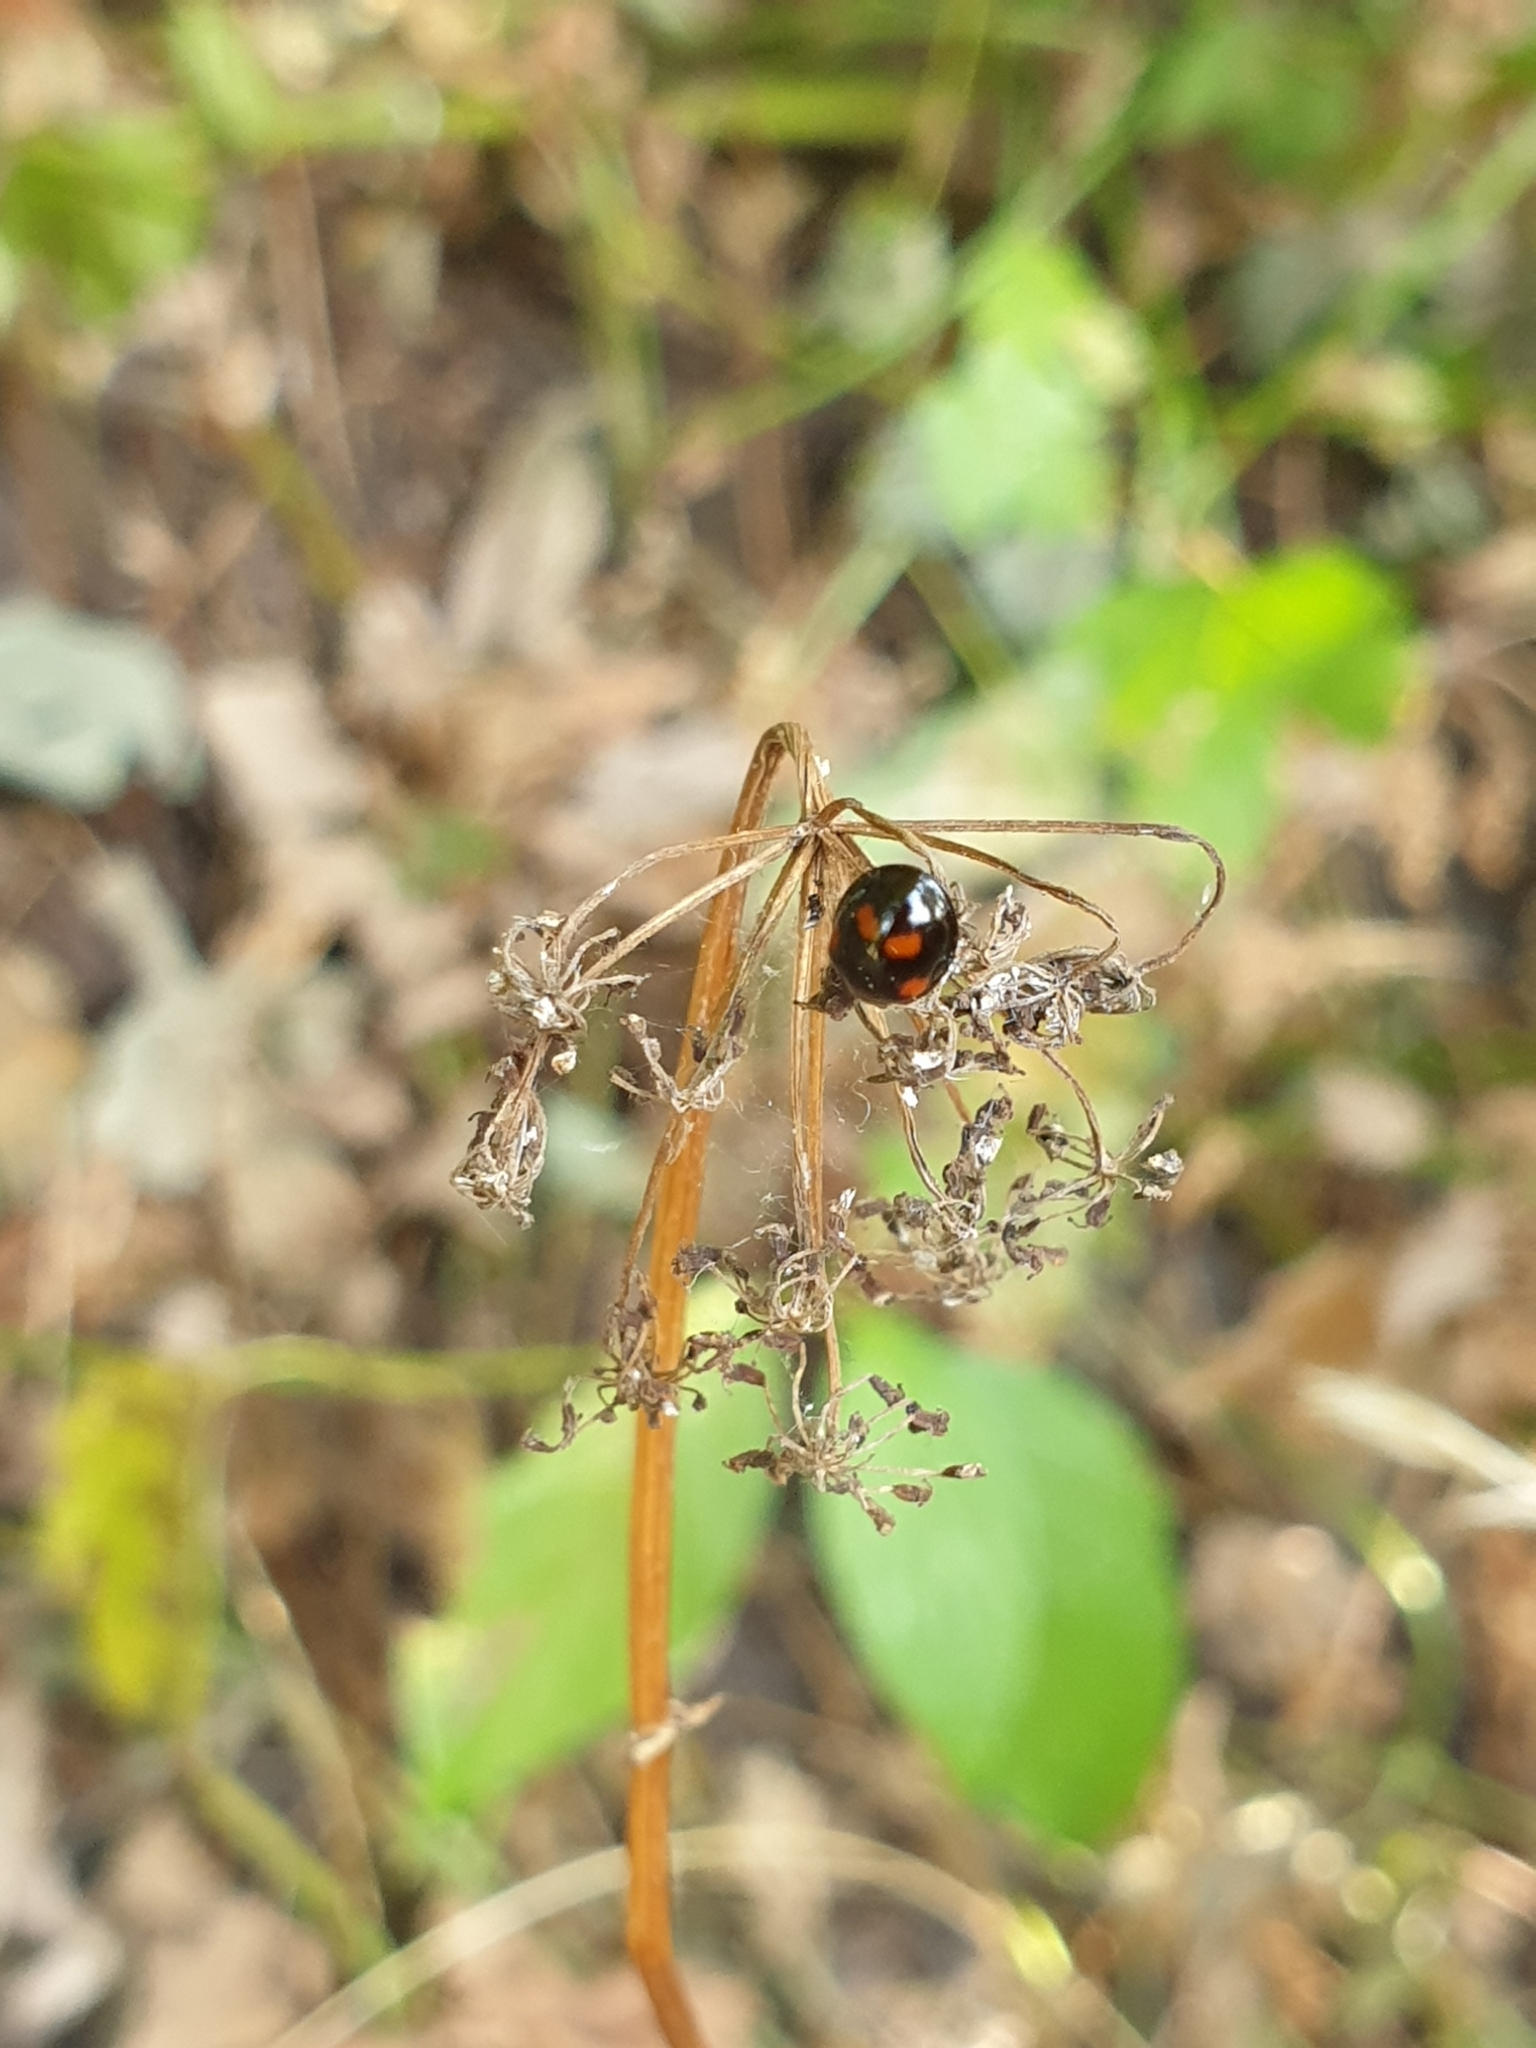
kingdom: Animalia
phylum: Arthropoda
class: Insecta
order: Coleoptera
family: Coccinellidae
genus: Brumus
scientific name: Brumus quadripustulatus
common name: Ladybird beetle
